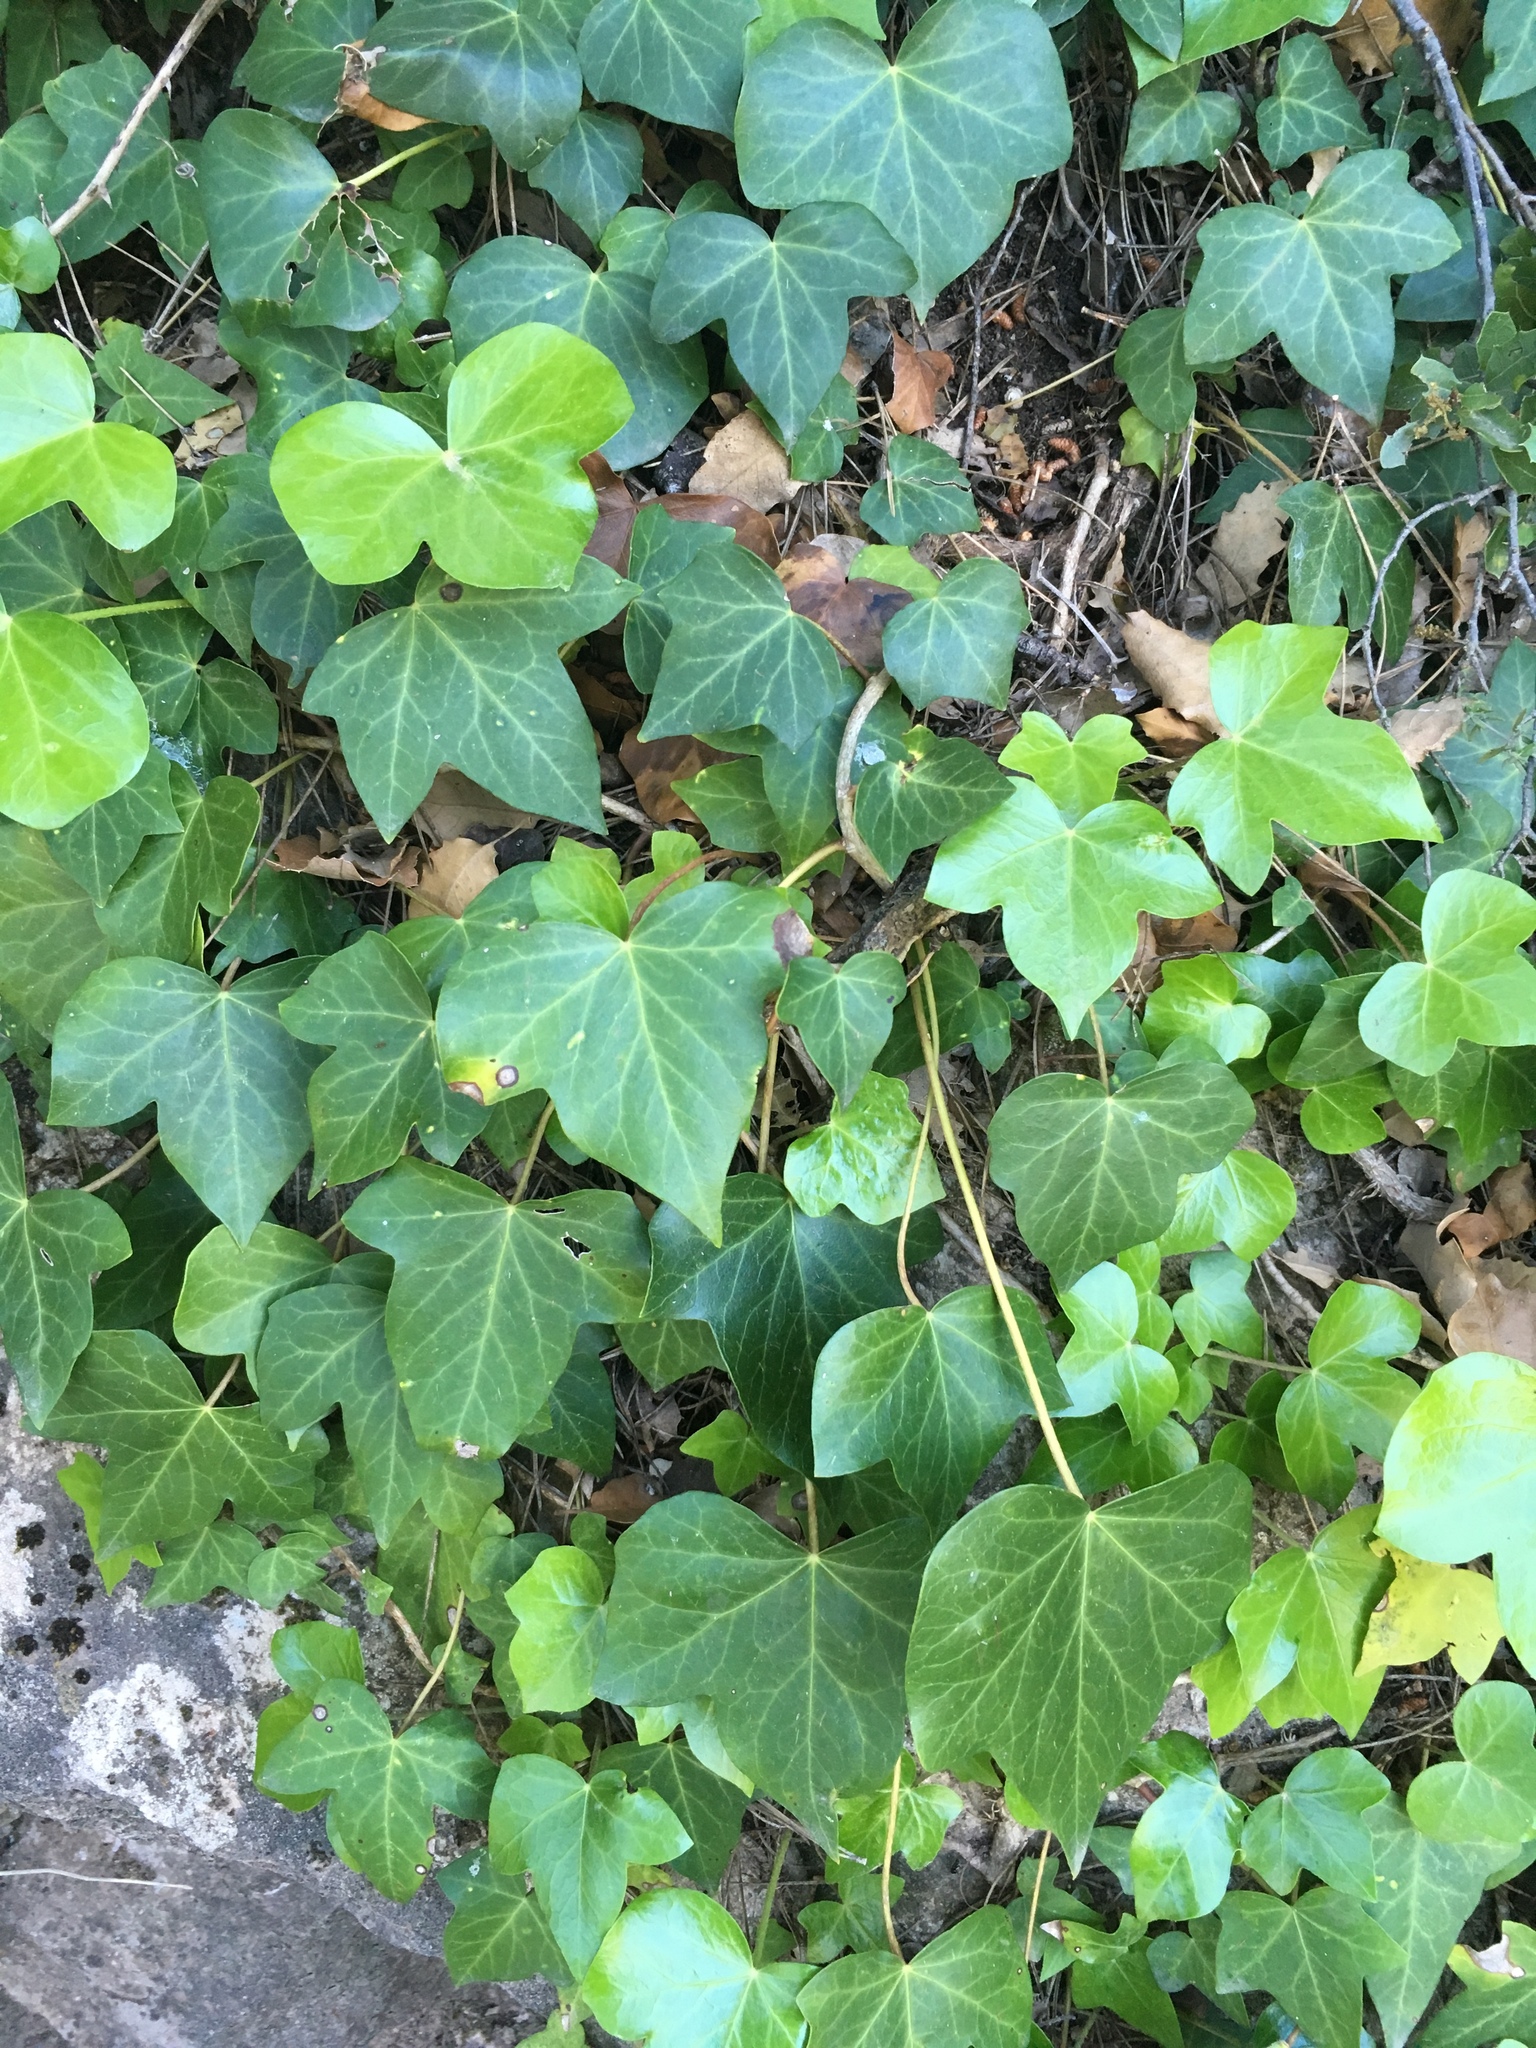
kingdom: Plantae
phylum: Tracheophyta
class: Magnoliopsida
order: Apiales
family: Araliaceae
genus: Hedera
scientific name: Hedera helix
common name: Ivy
